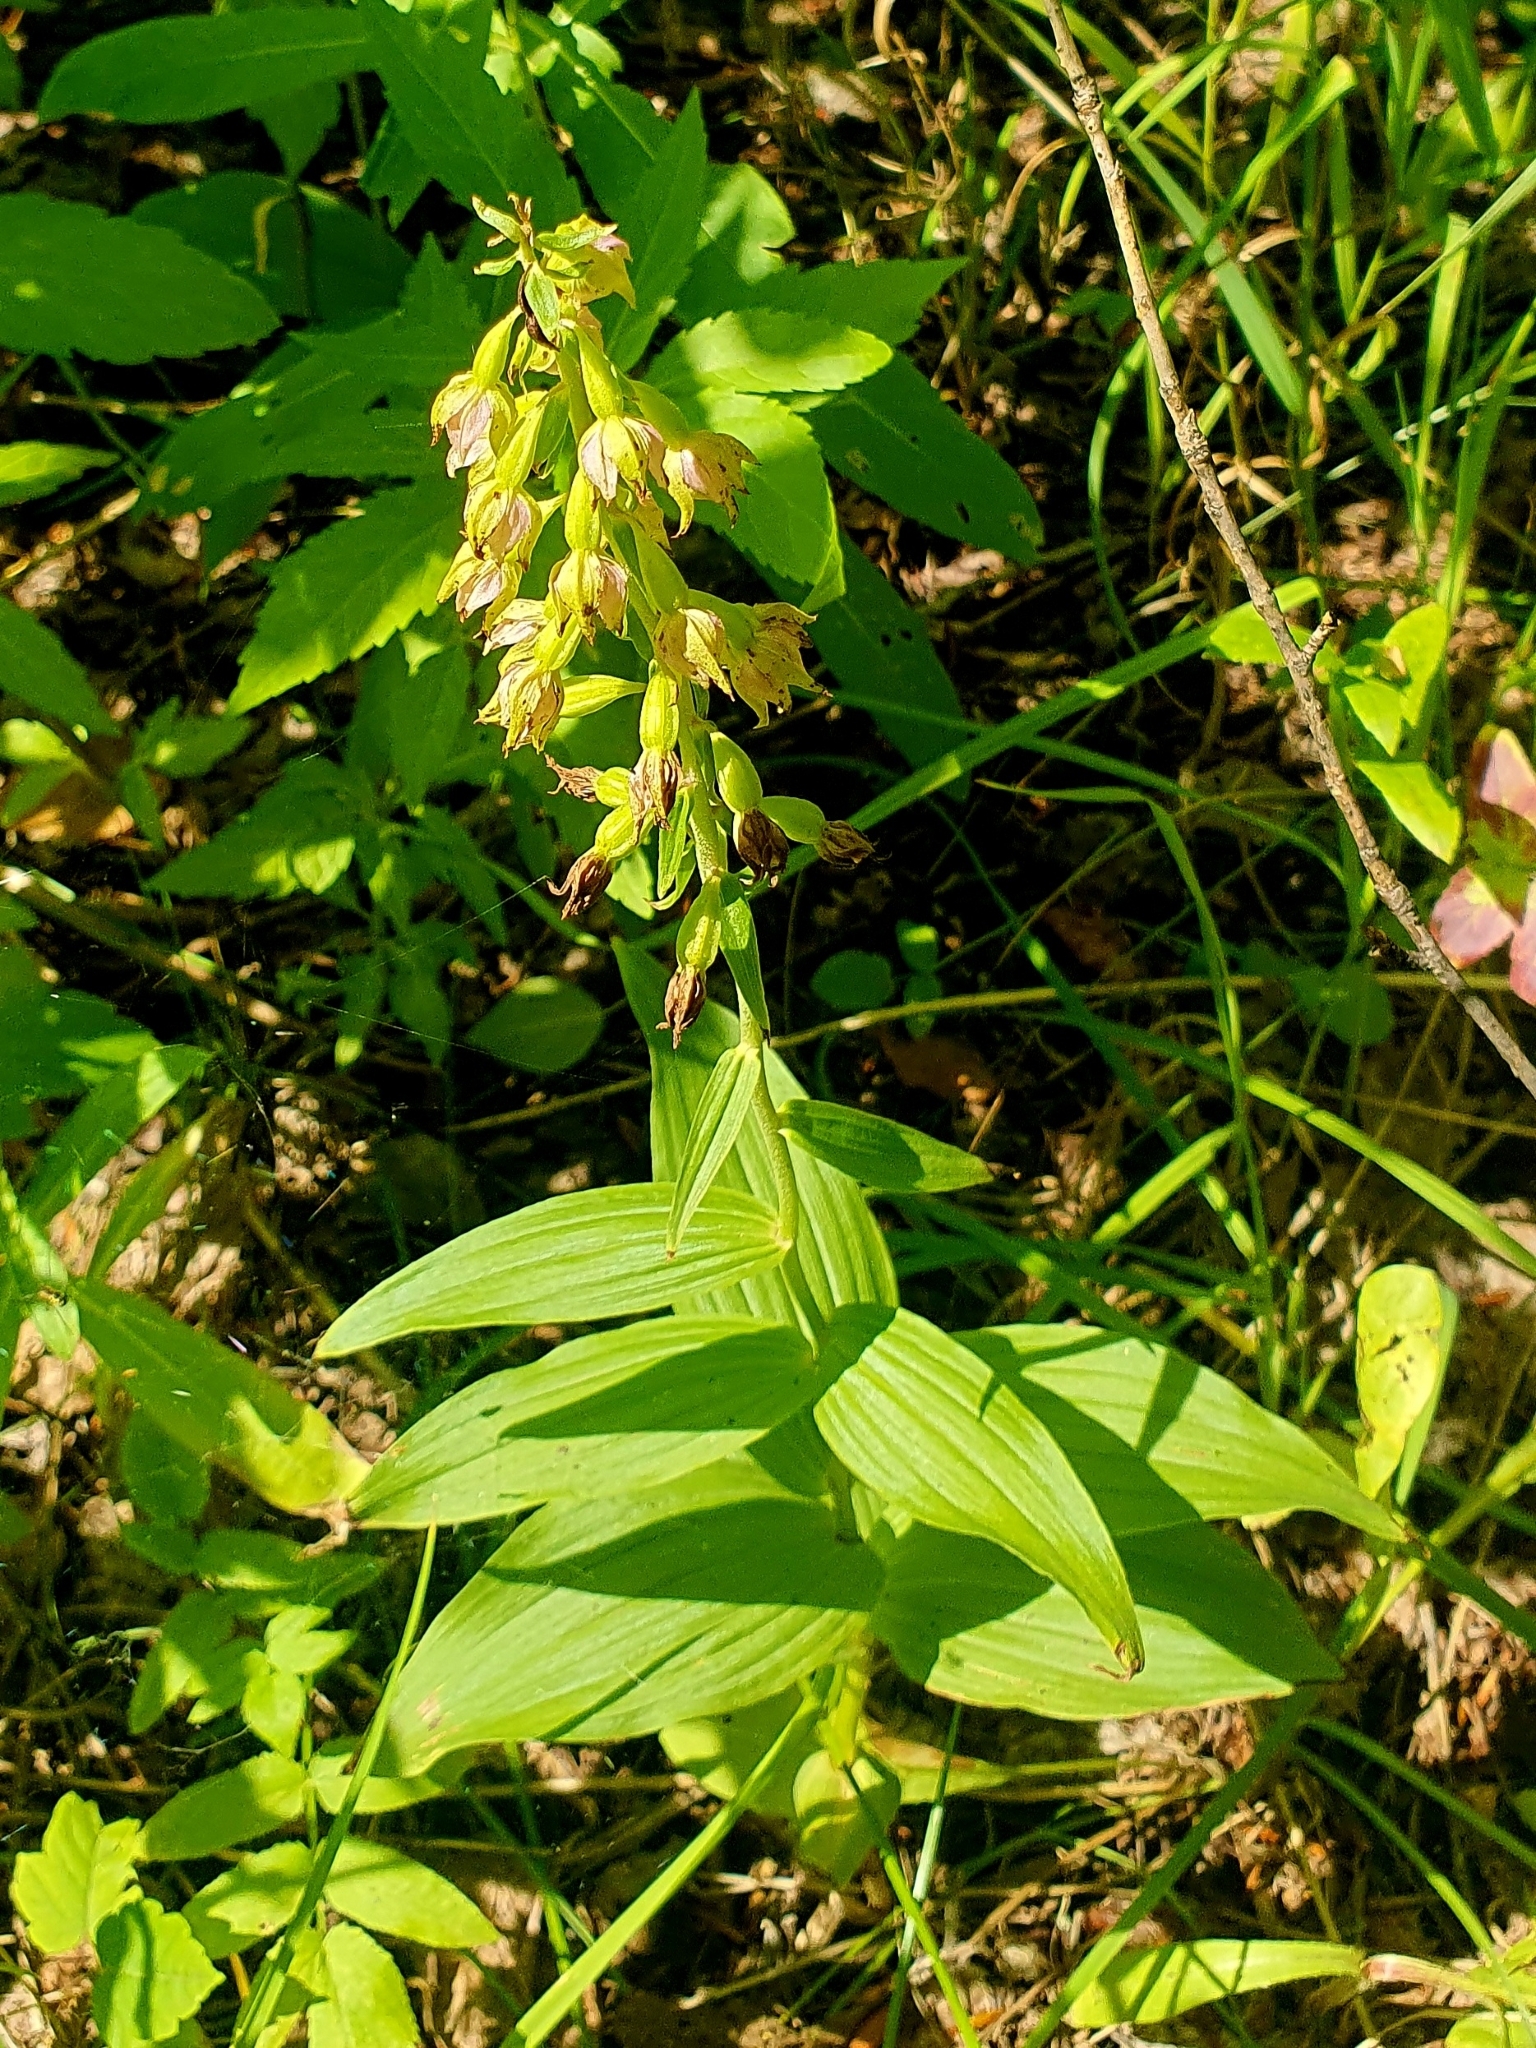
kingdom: Plantae
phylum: Tracheophyta
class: Liliopsida
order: Asparagales
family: Orchidaceae
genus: Epipactis
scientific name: Epipactis helleborine
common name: Broad-leaved helleborine
